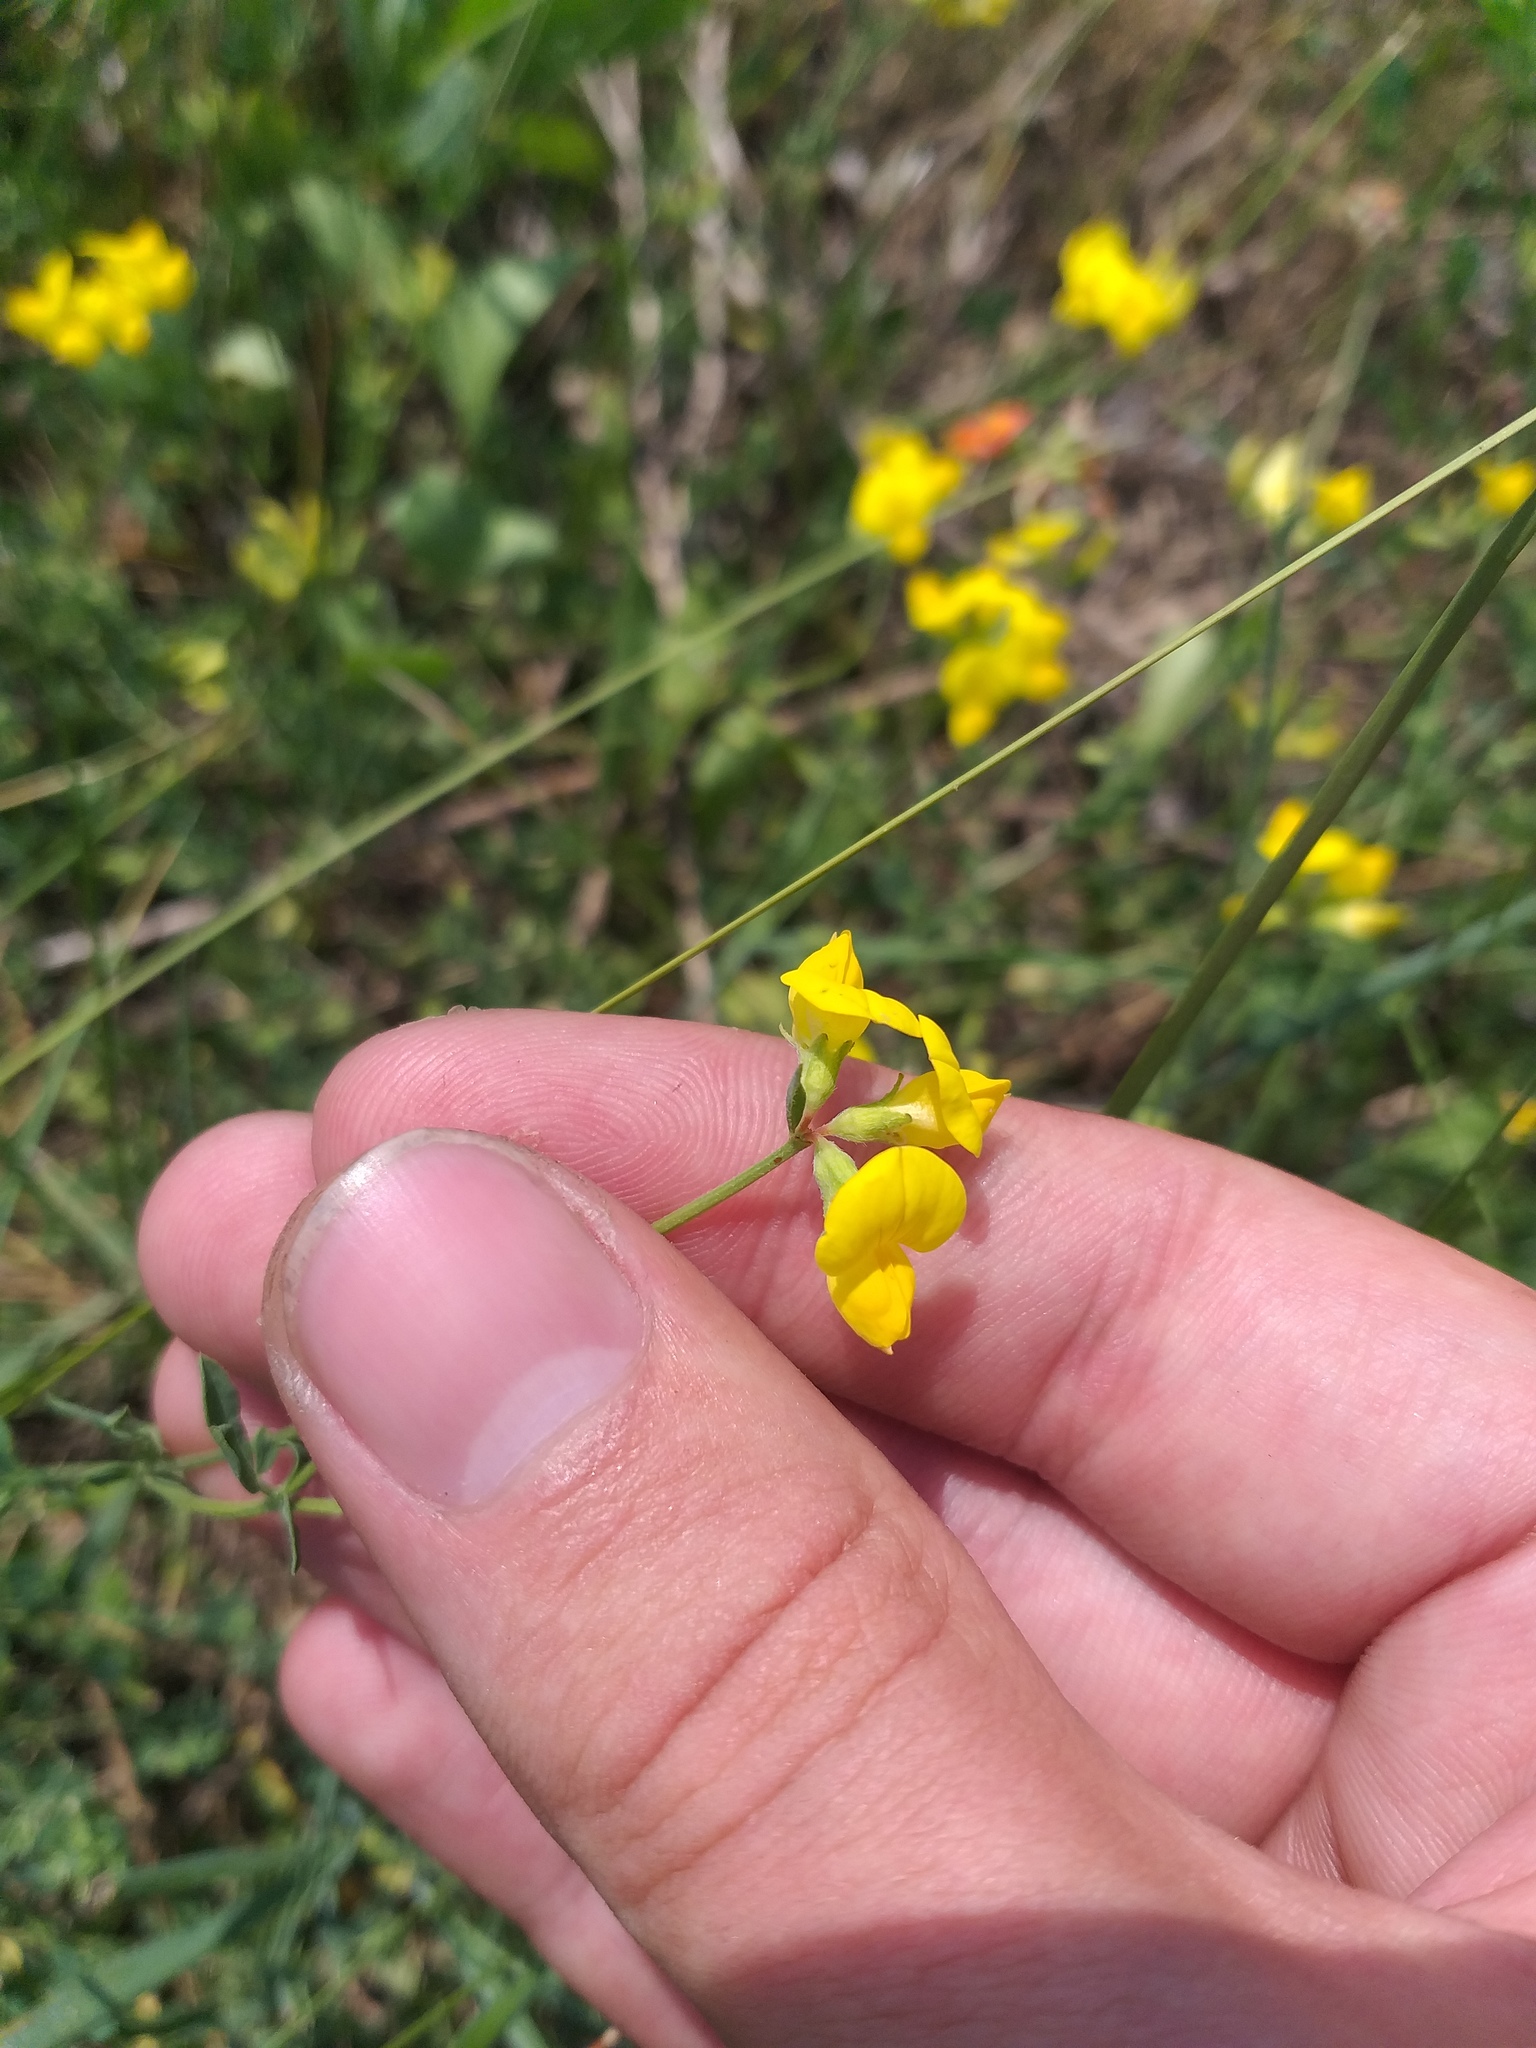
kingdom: Plantae
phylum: Tracheophyta
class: Magnoliopsida
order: Fabales
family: Fabaceae
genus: Lotus
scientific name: Lotus corniculatus
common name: Common bird's-foot-trefoil
